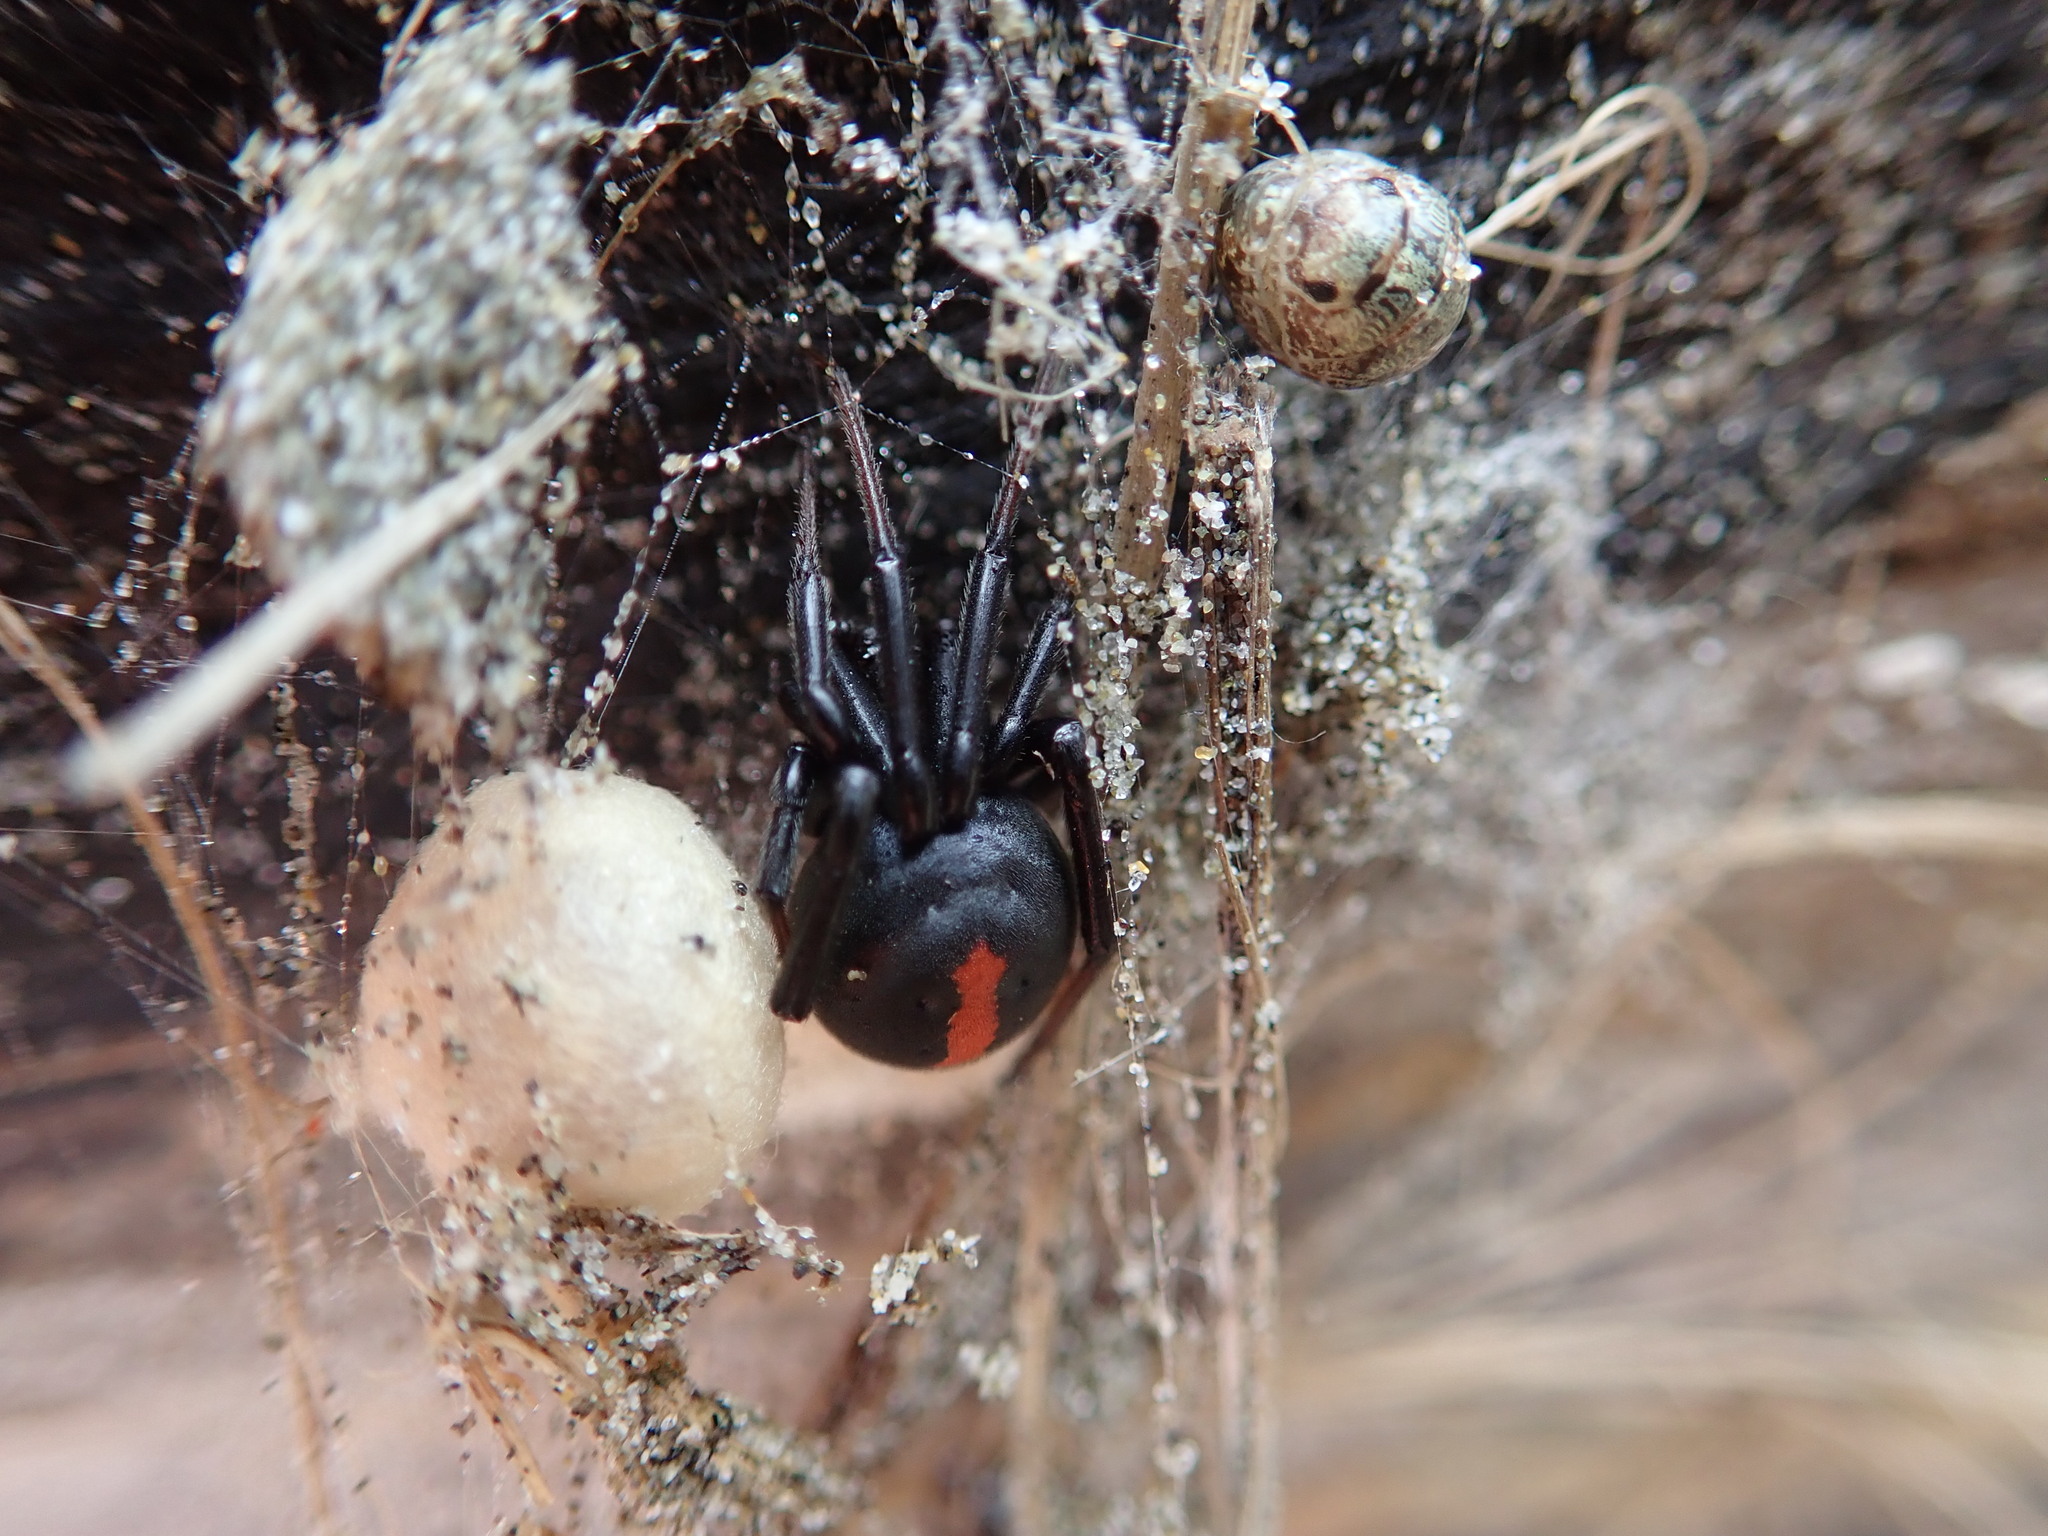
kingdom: Animalia
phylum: Arthropoda
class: Arachnida
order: Araneae
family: Theridiidae
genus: Latrodectus
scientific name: Latrodectus katipo
